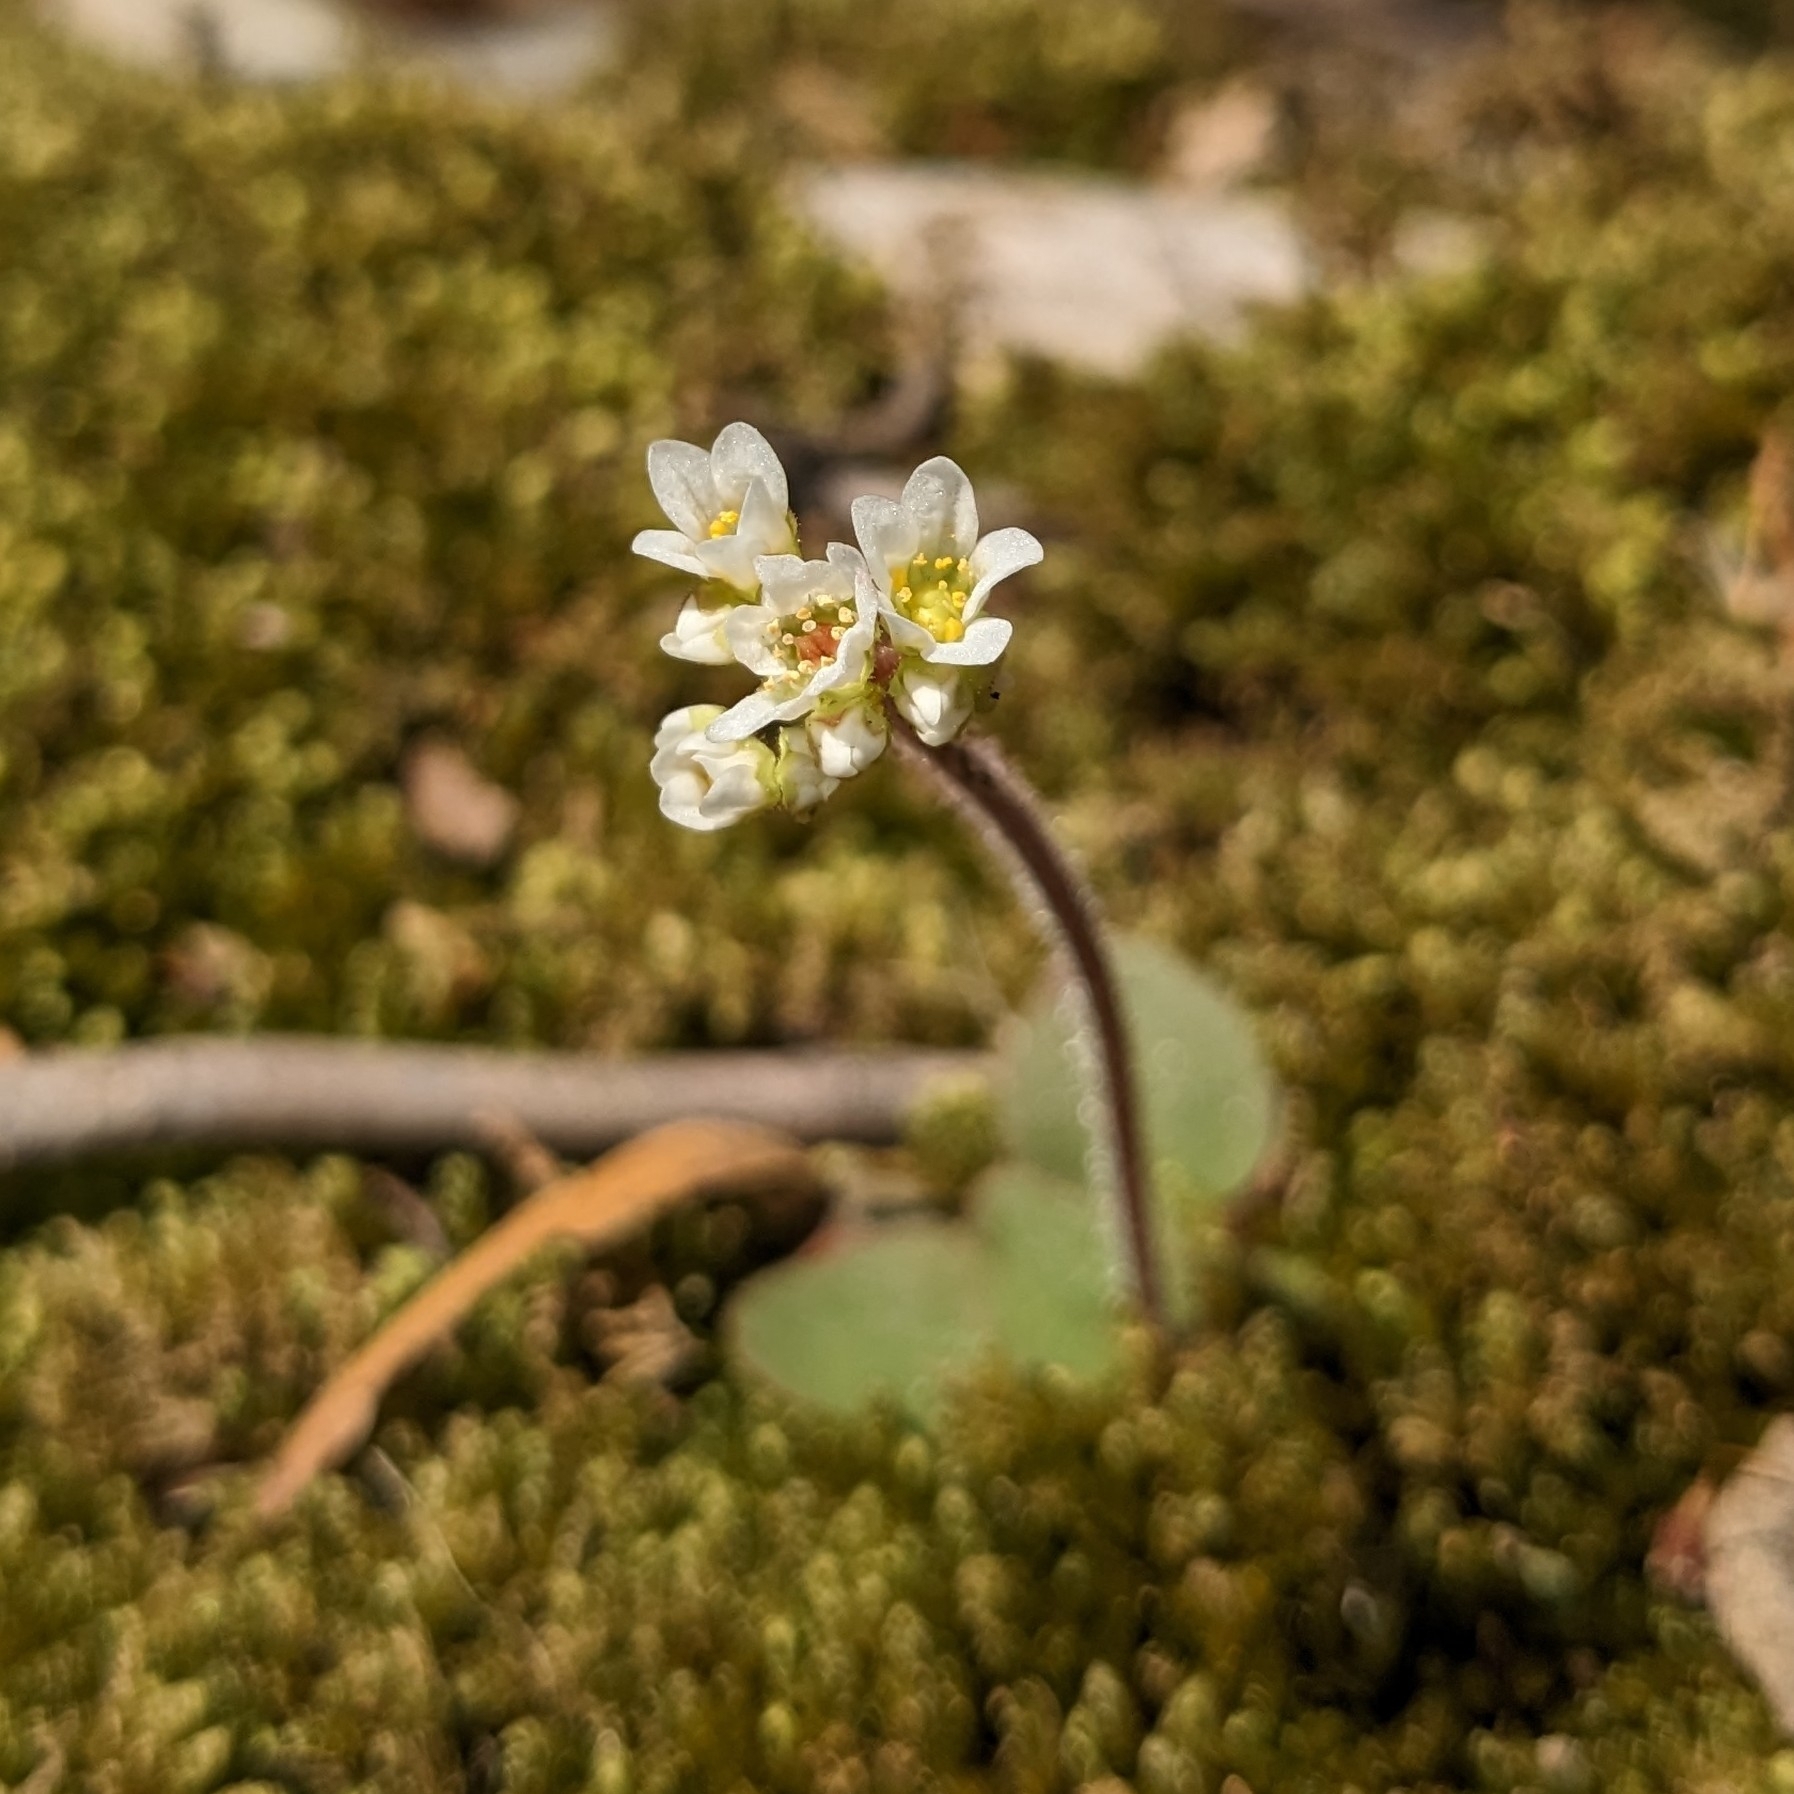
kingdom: Plantae
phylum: Tracheophyta
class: Magnoliopsida
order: Saxifragales
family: Saxifragaceae
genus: Micranthes
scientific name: Micranthes virginiensis
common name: Early saxifrage
